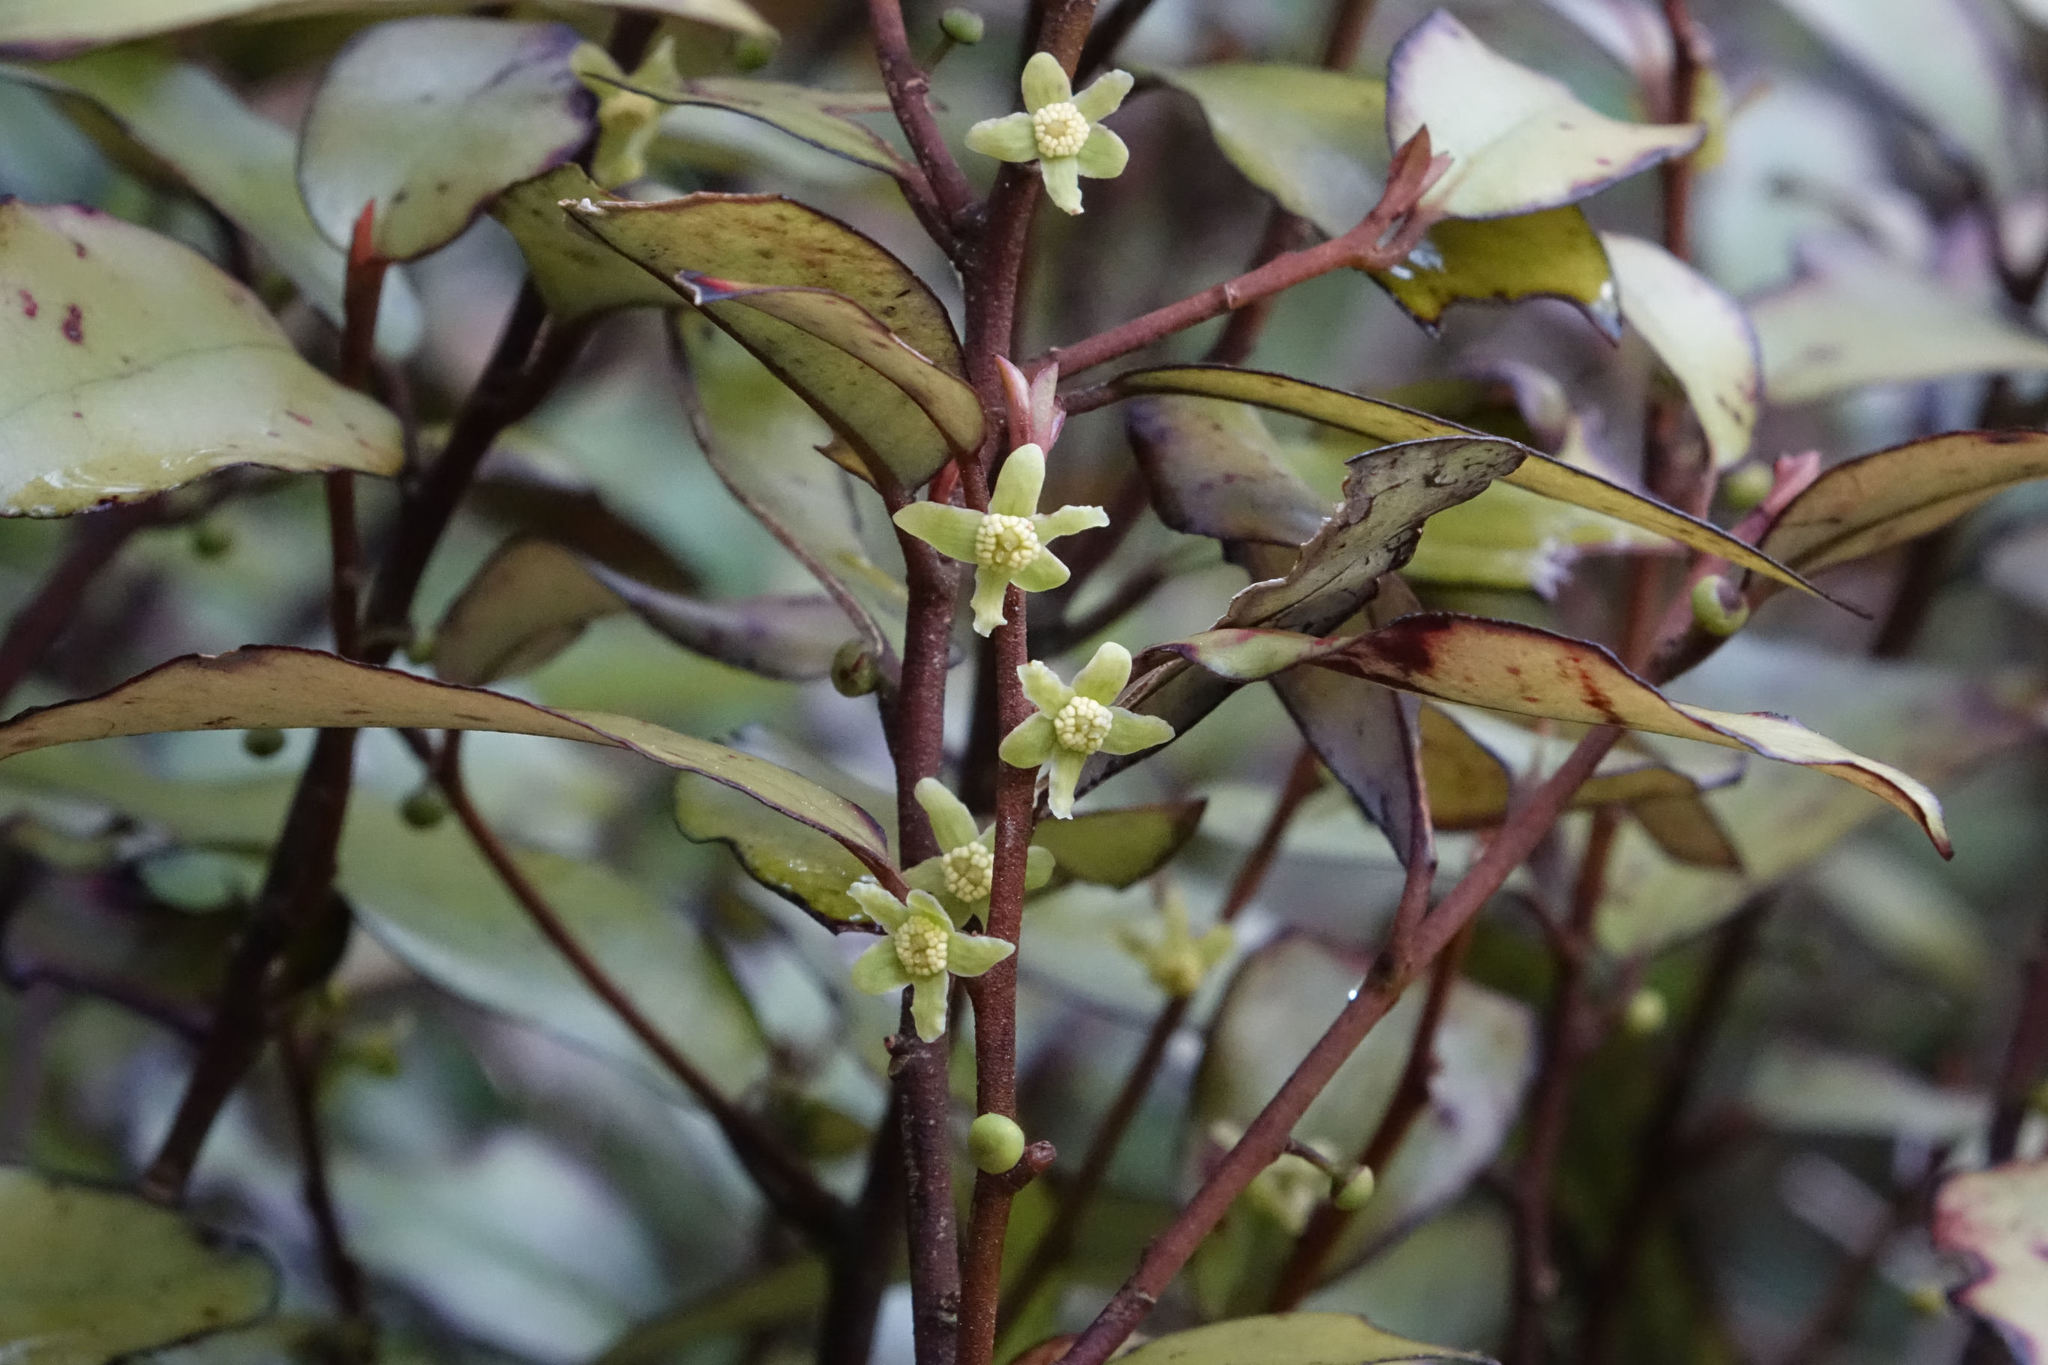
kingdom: Plantae
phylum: Tracheophyta
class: Magnoliopsida
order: Canellales
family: Winteraceae
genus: Pseudowintera
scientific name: Pseudowintera colorata
